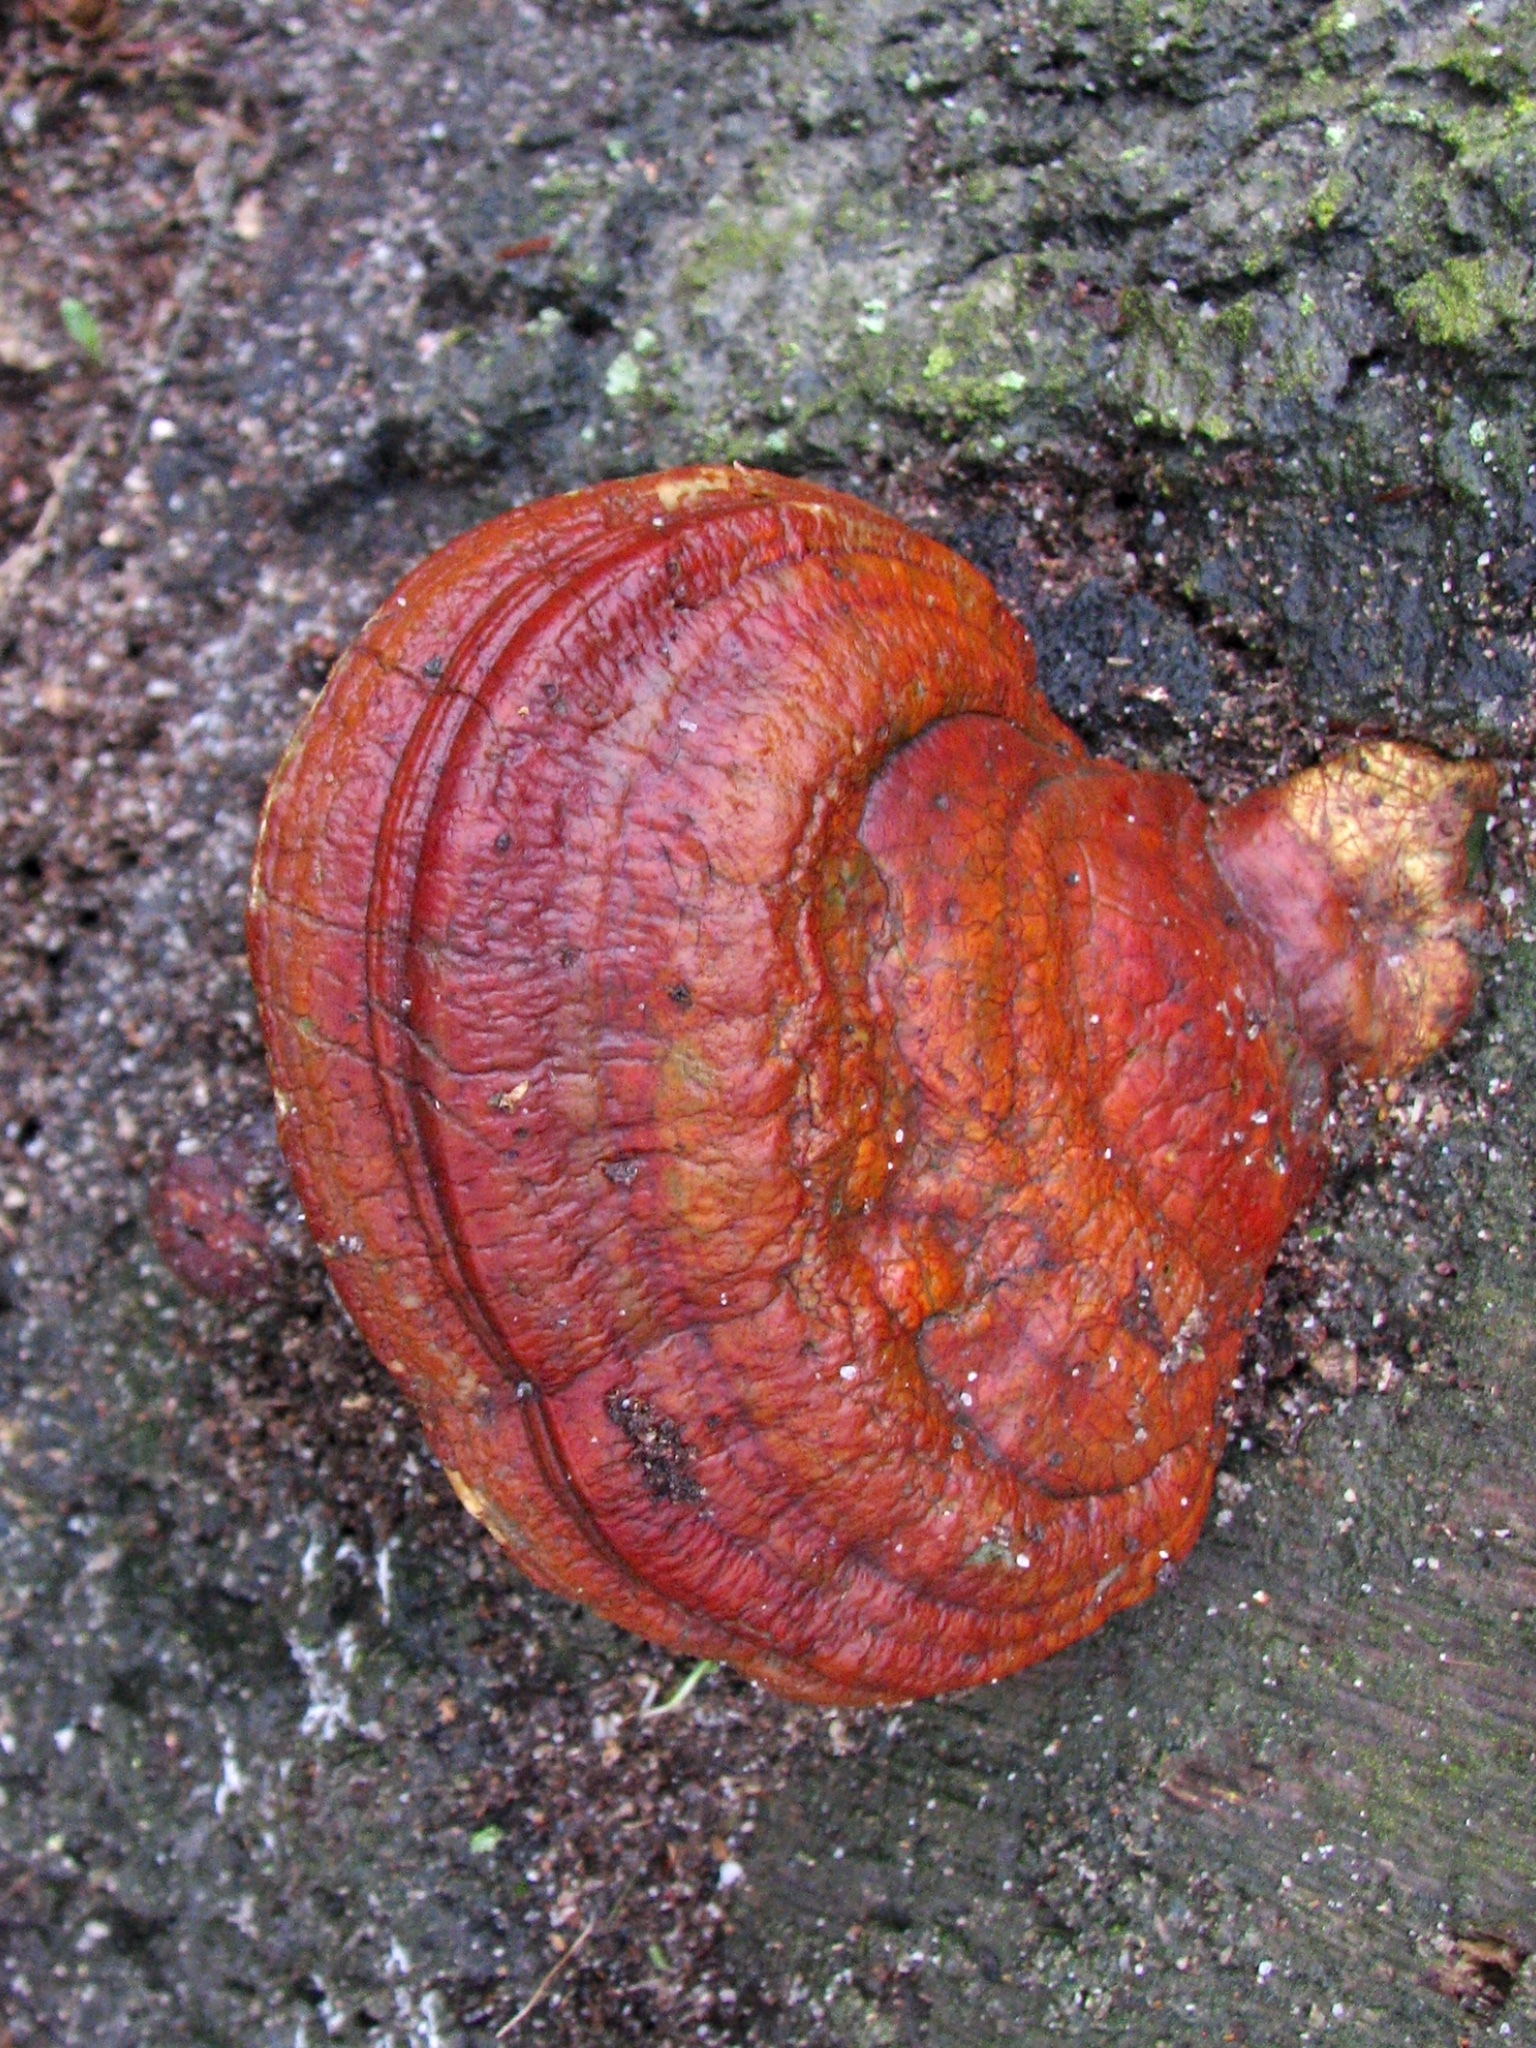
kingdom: Fungi
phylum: Basidiomycota
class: Agaricomycetes
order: Polyporales
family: Polyporaceae
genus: Ganoderma
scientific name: Ganoderma resinaceum
